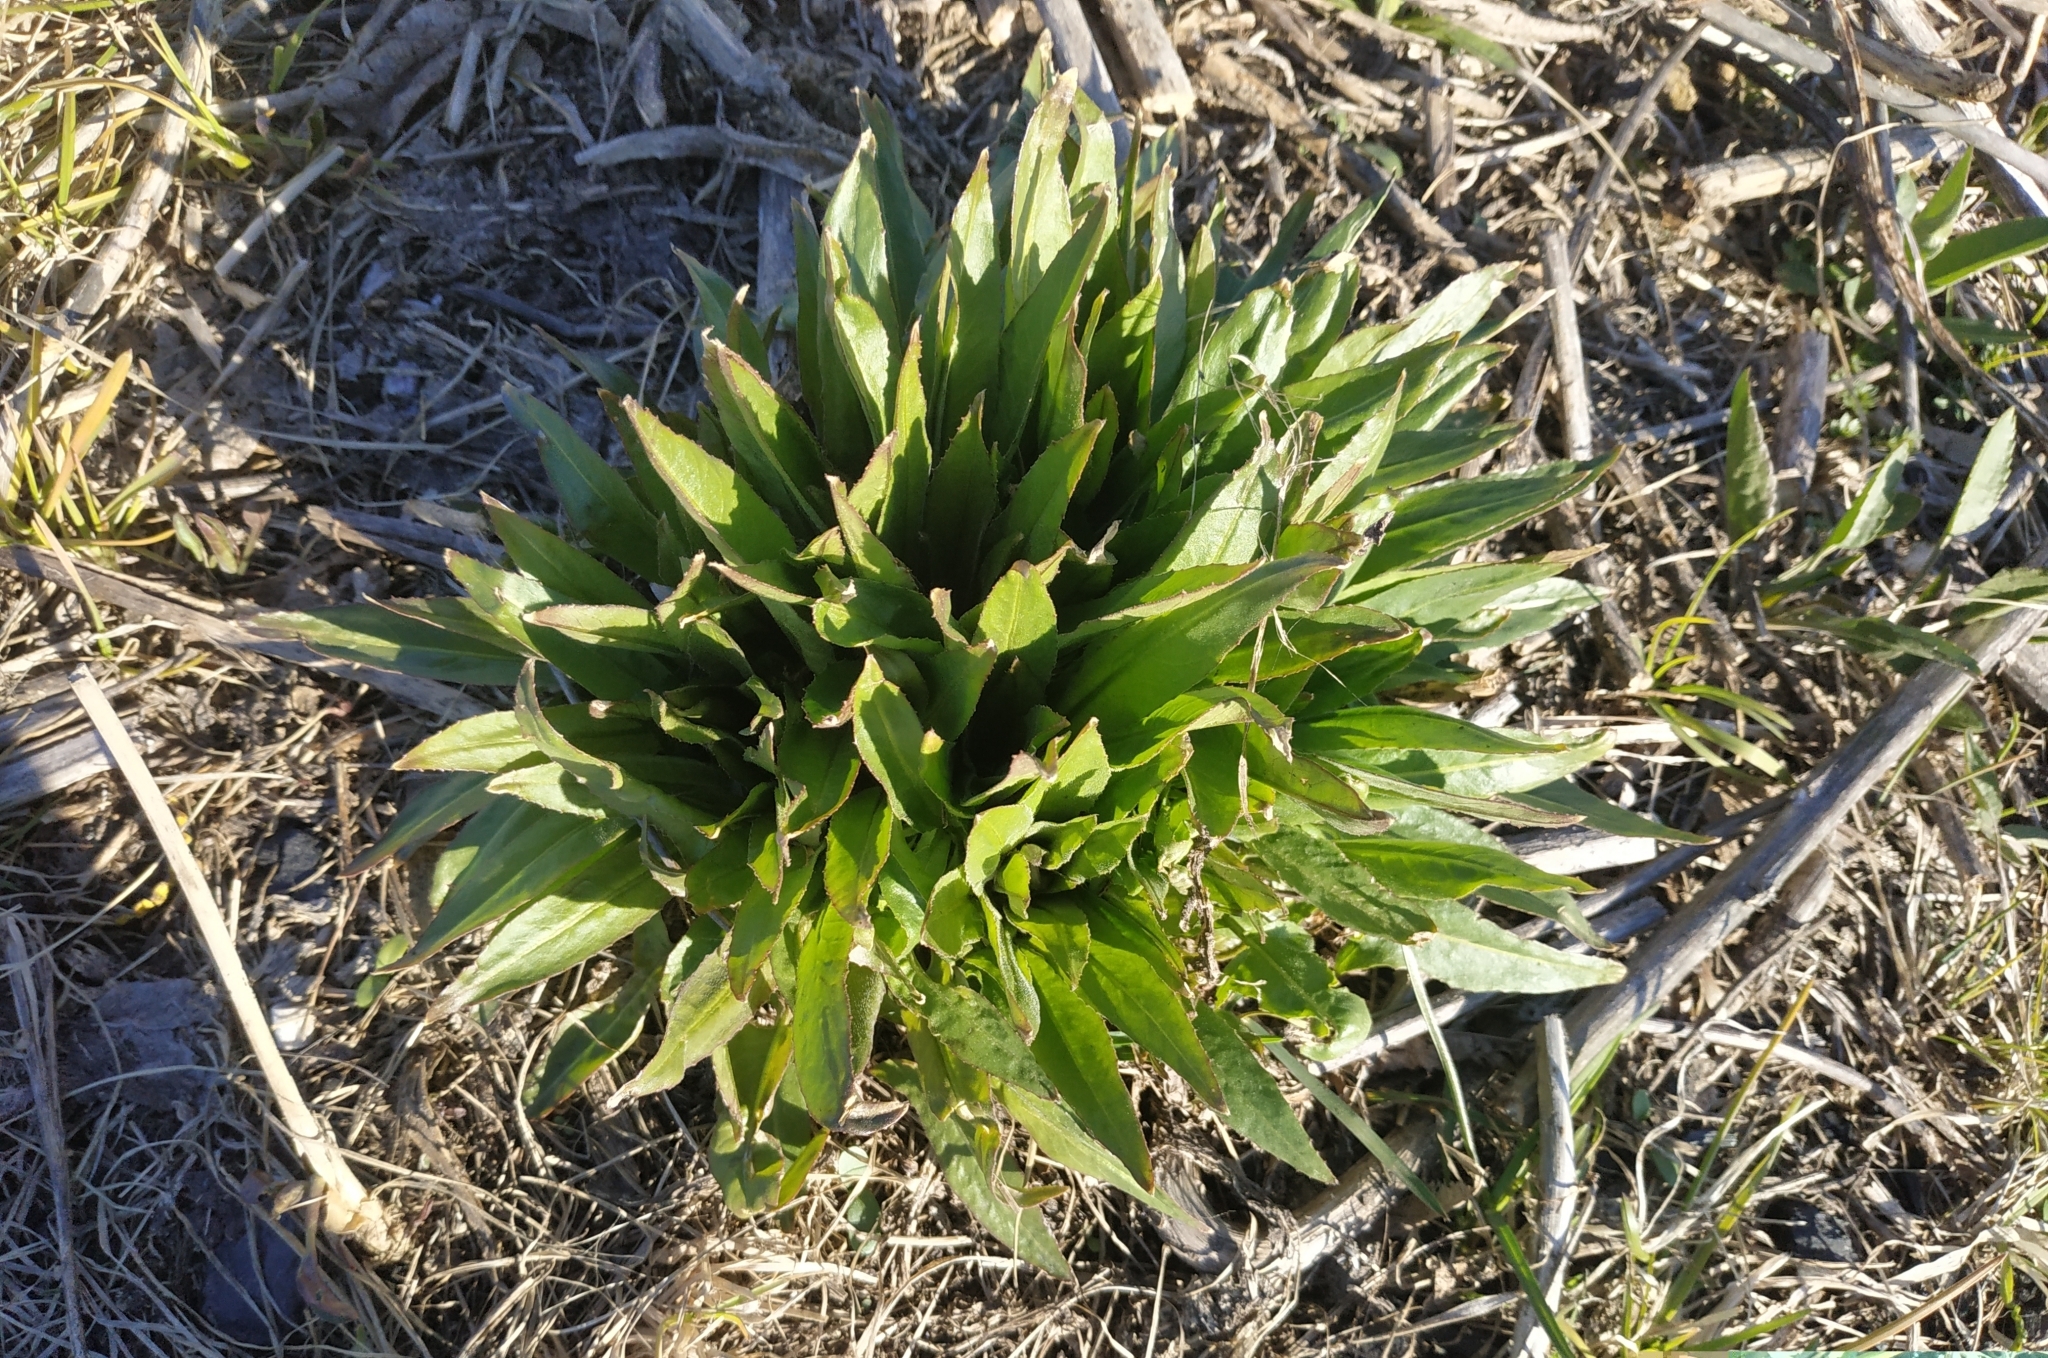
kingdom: Plantae
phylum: Tracheophyta
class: Magnoliopsida
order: Brassicales
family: Brassicaceae
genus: Bunias
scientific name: Bunias orientalis
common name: Warty-cabbage
